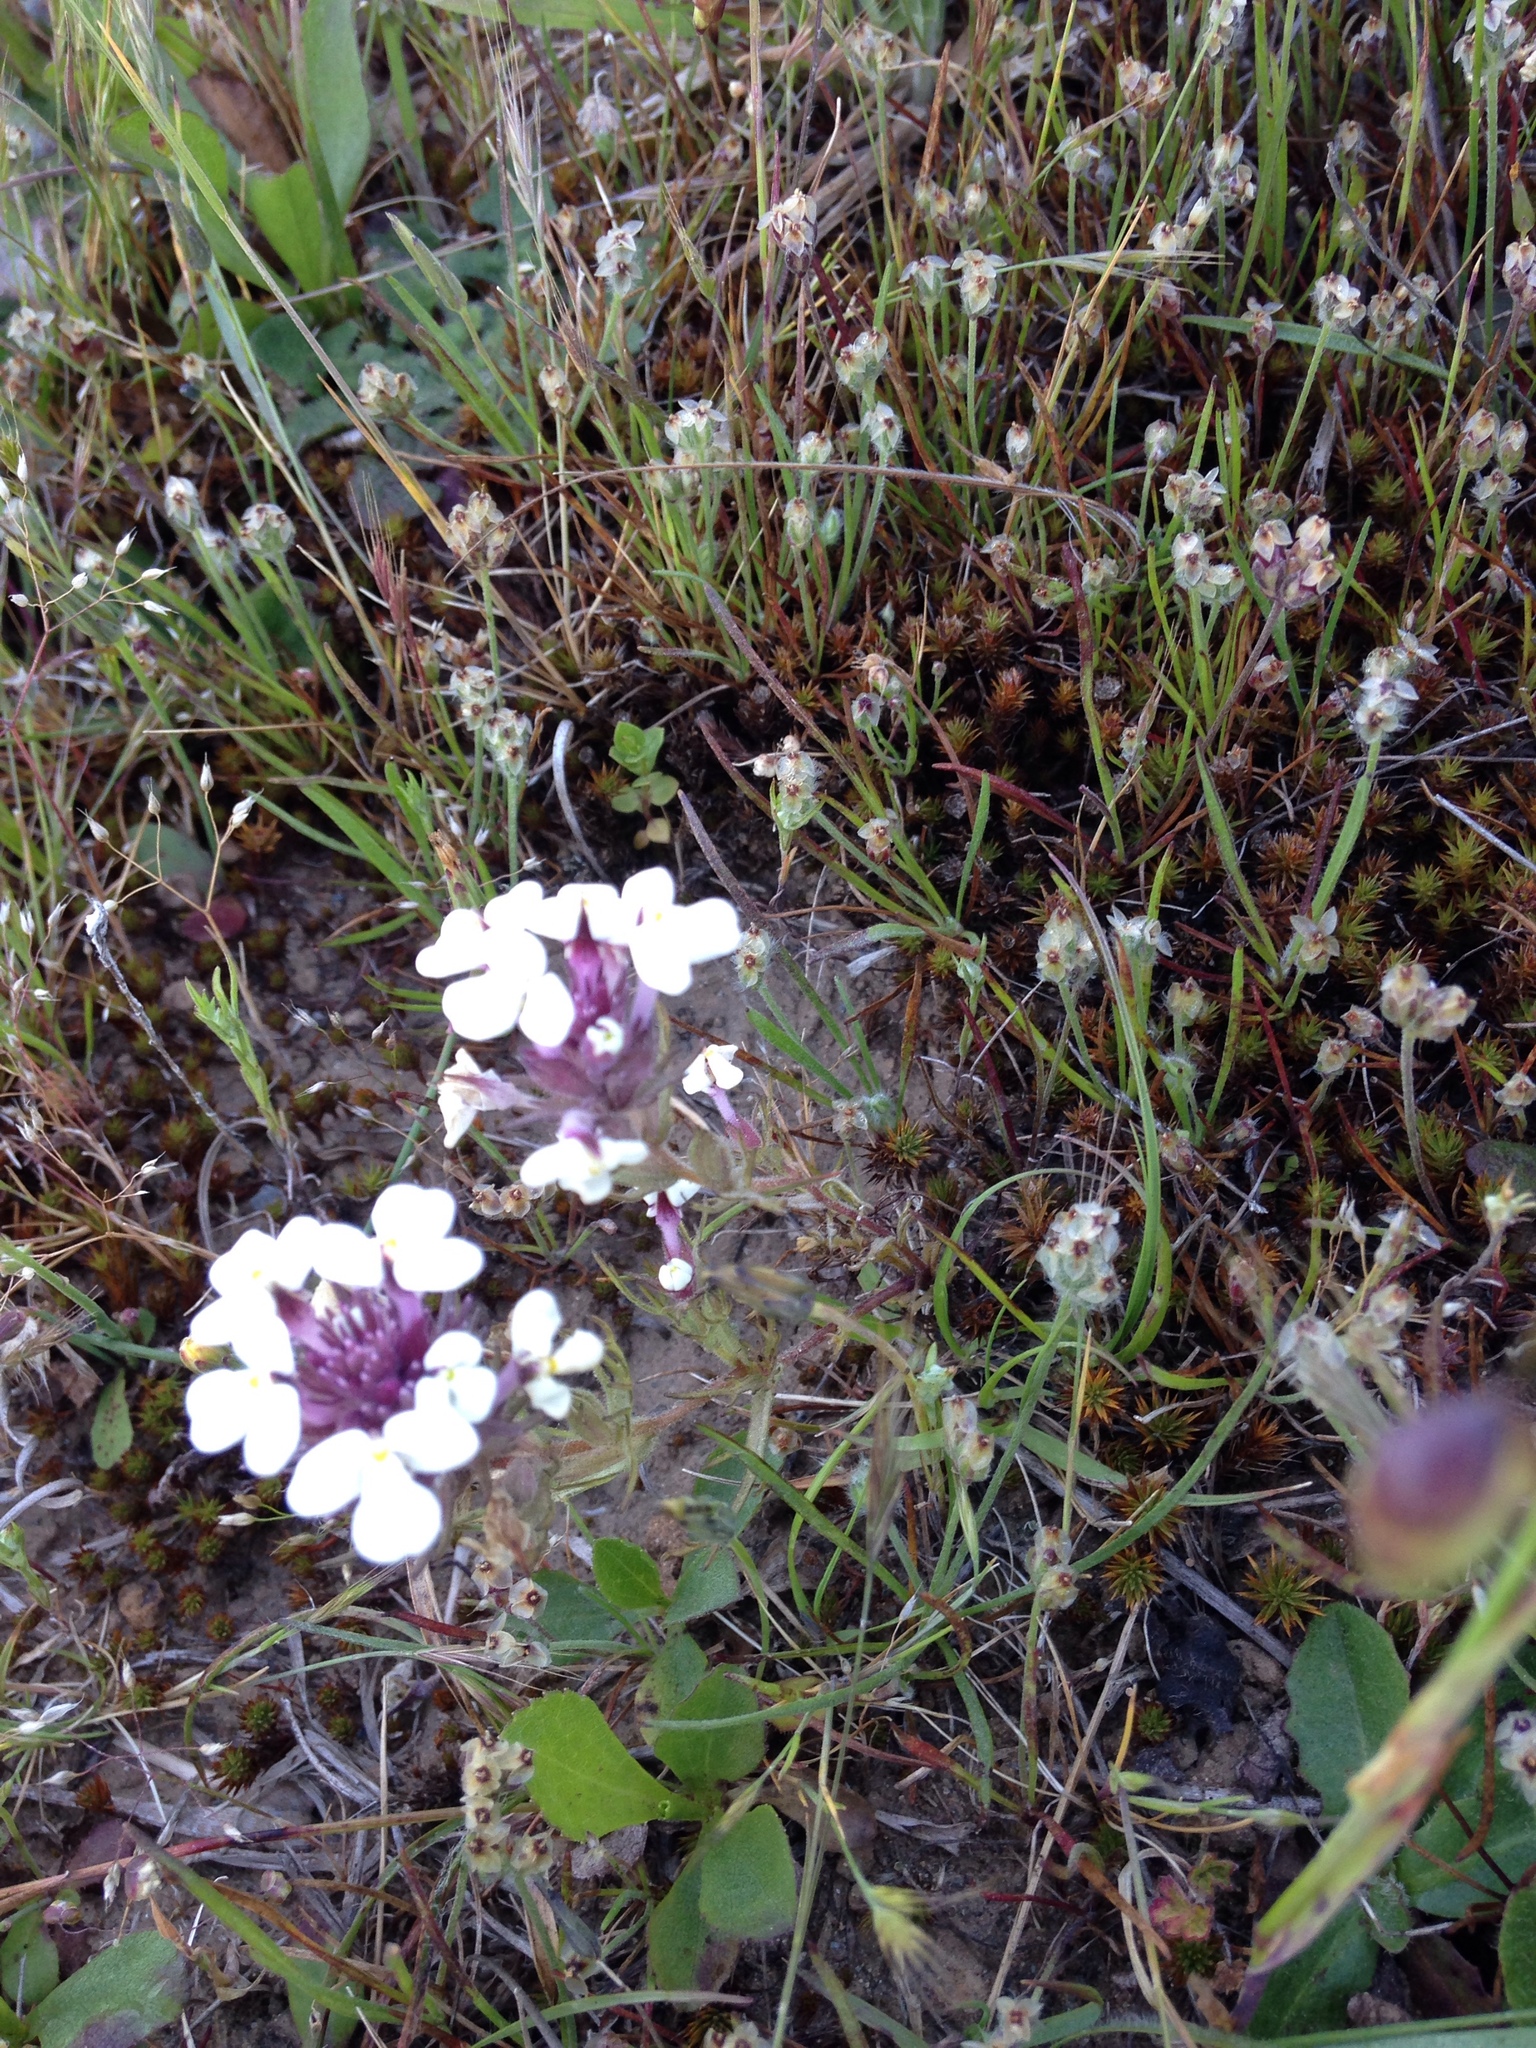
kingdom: Plantae
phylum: Tracheophyta
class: Magnoliopsida
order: Lamiales
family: Orobanchaceae
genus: Triphysaria
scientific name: Triphysaria eriantha
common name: Johnny-tuck
